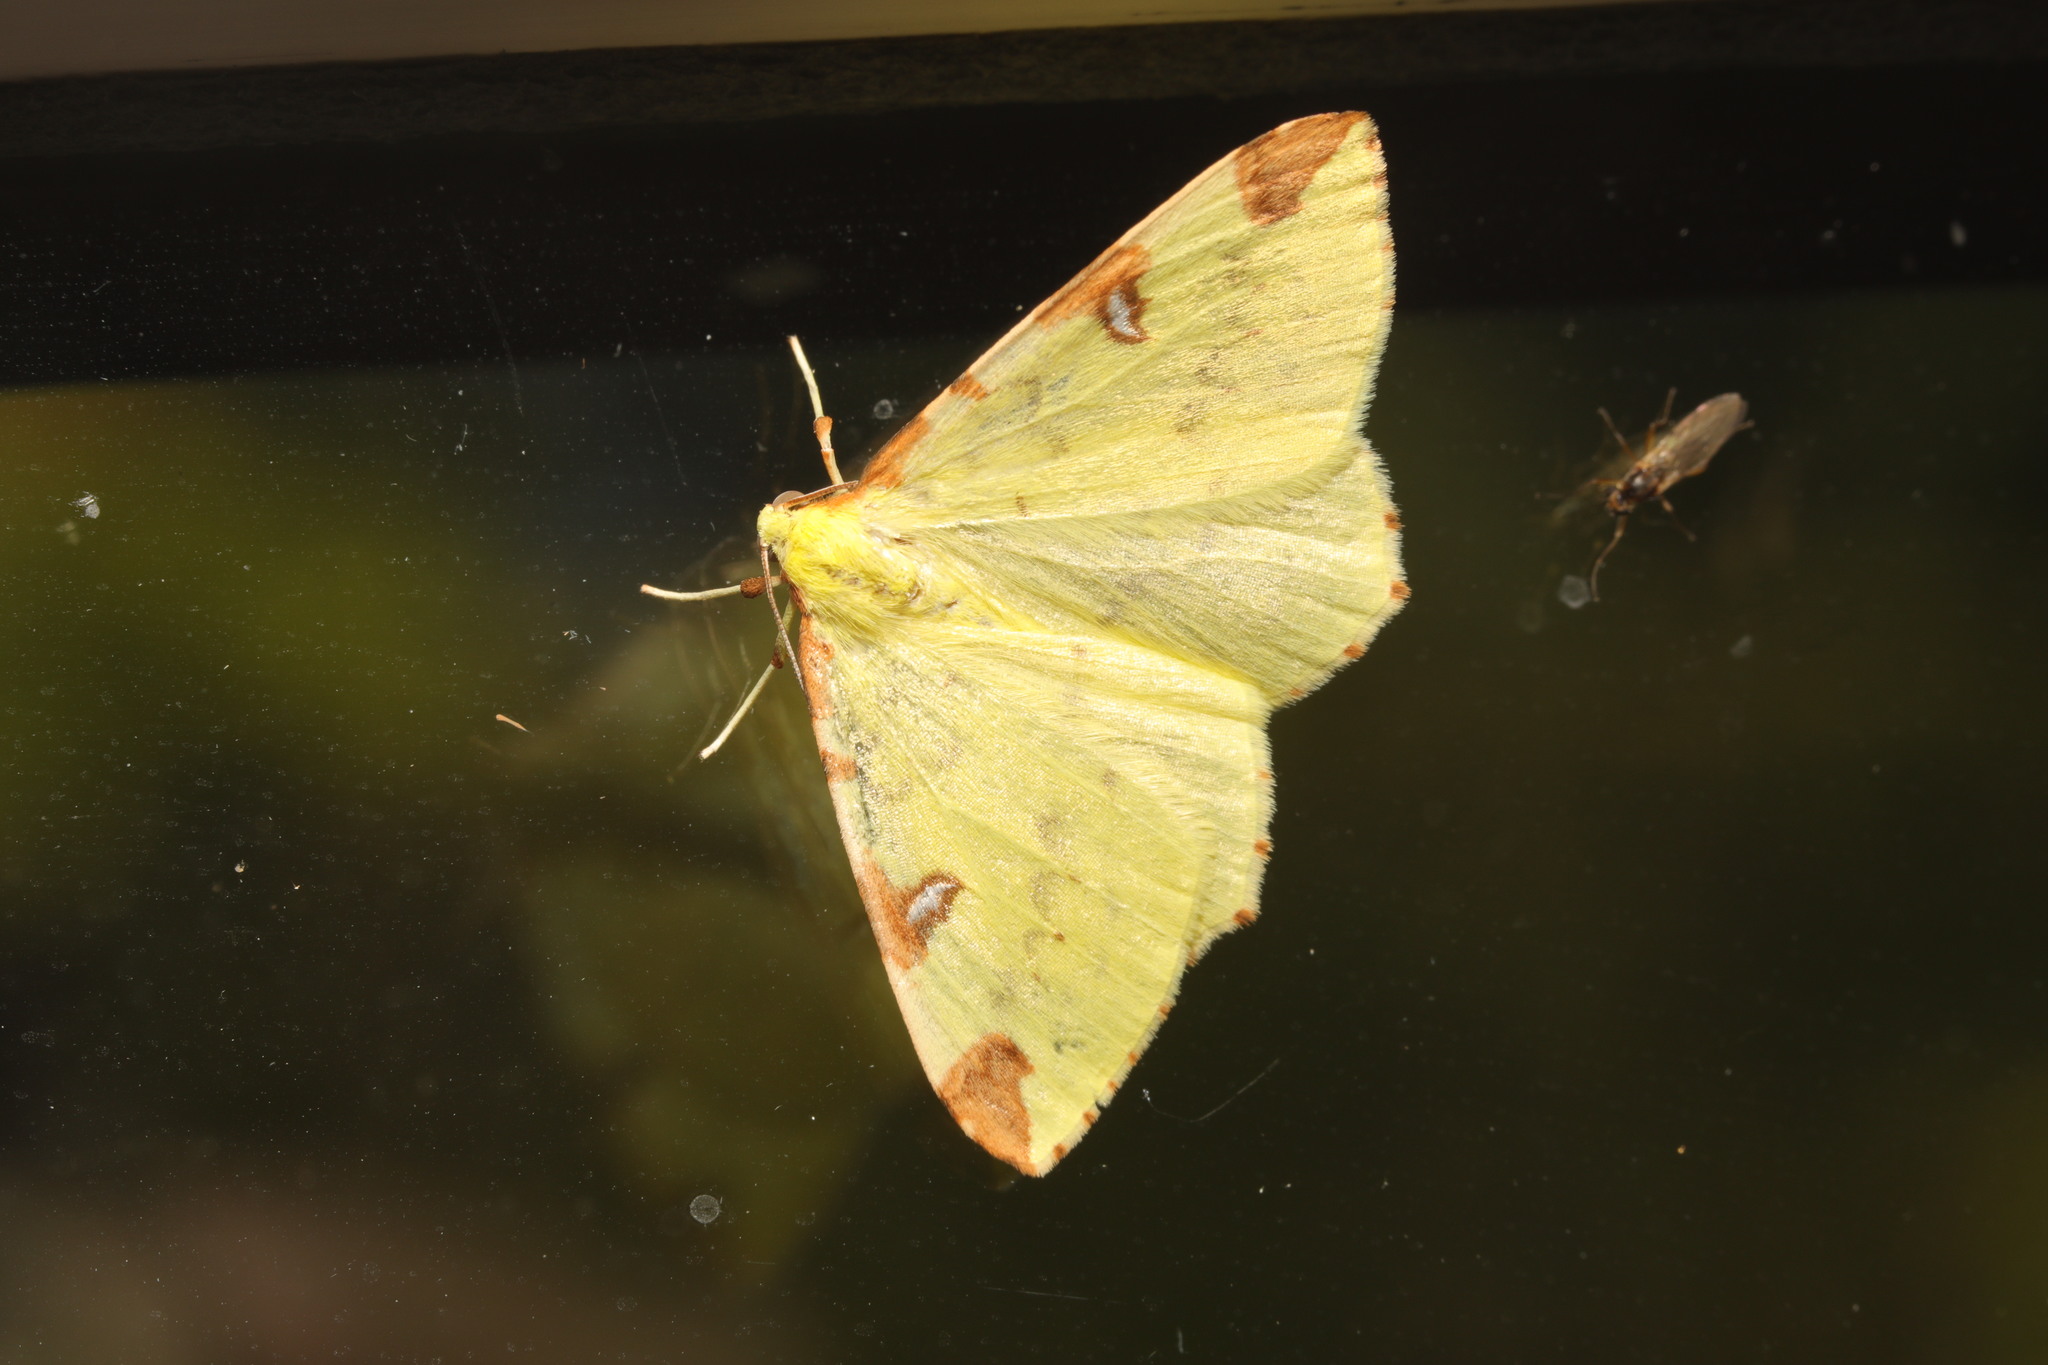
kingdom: Animalia
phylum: Arthropoda
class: Insecta
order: Lepidoptera
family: Geometridae
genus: Opisthograptis
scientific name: Opisthograptis luteolata
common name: Brimstone moth
